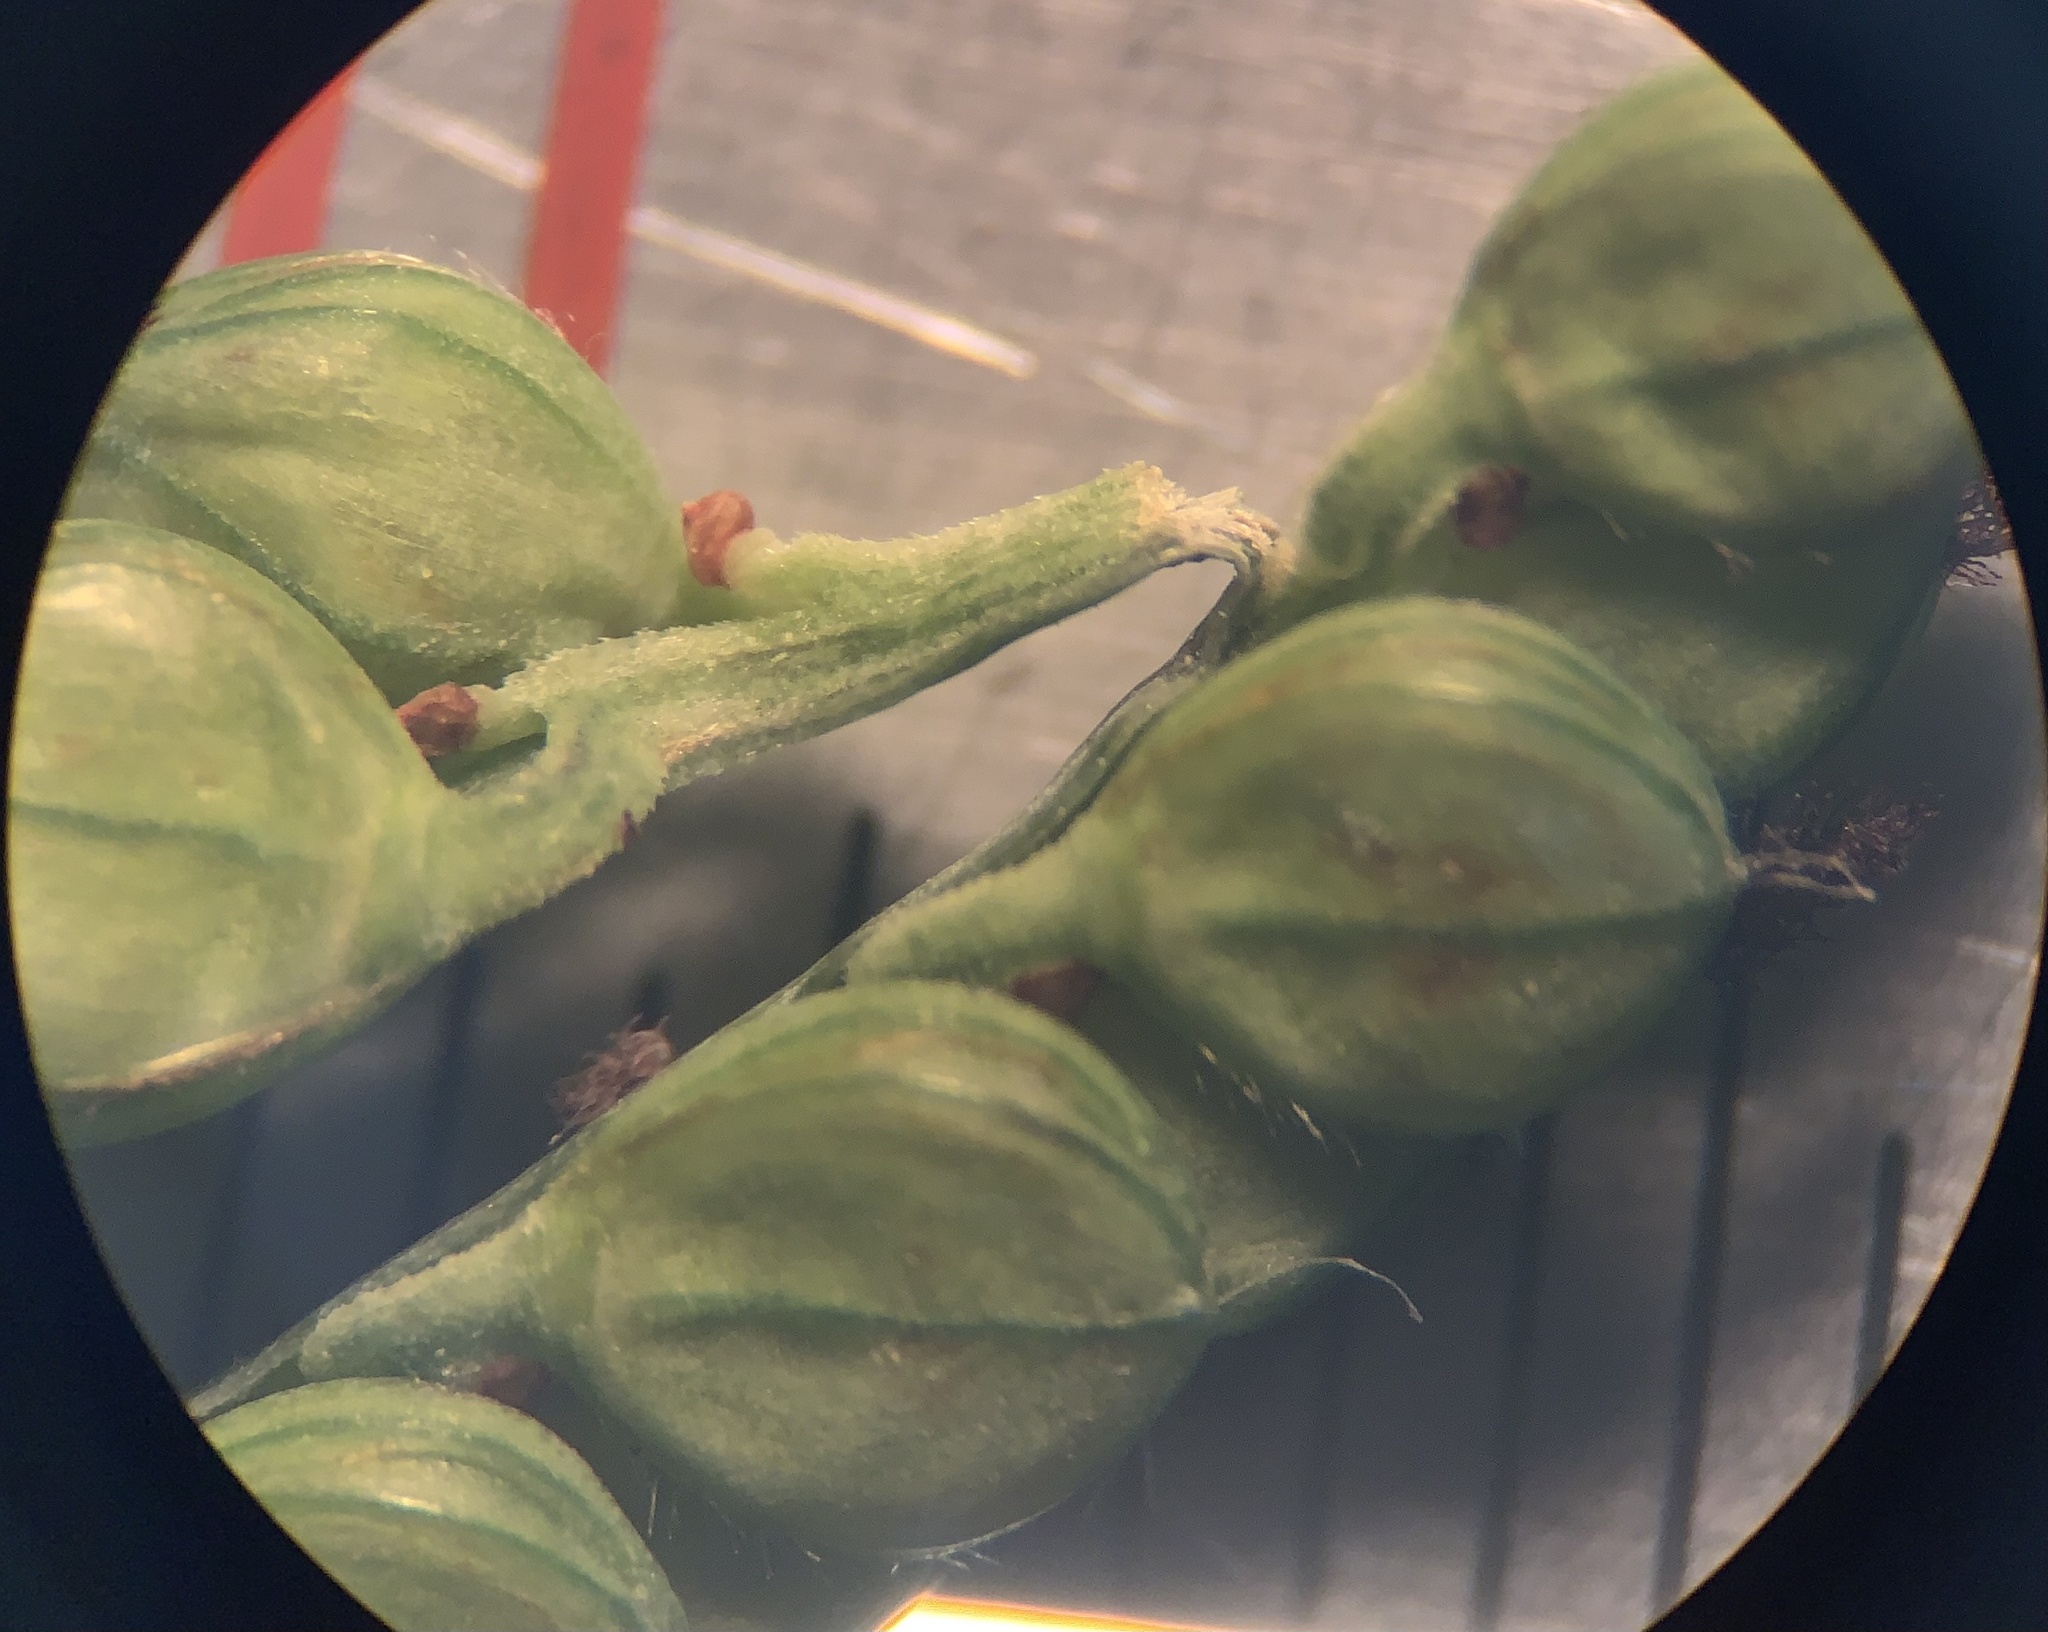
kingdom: Plantae
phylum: Tracheophyta
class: Liliopsida
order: Poales
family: Poaceae
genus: Paspalum
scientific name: Paspalum floridanum
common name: Florida paspalum
